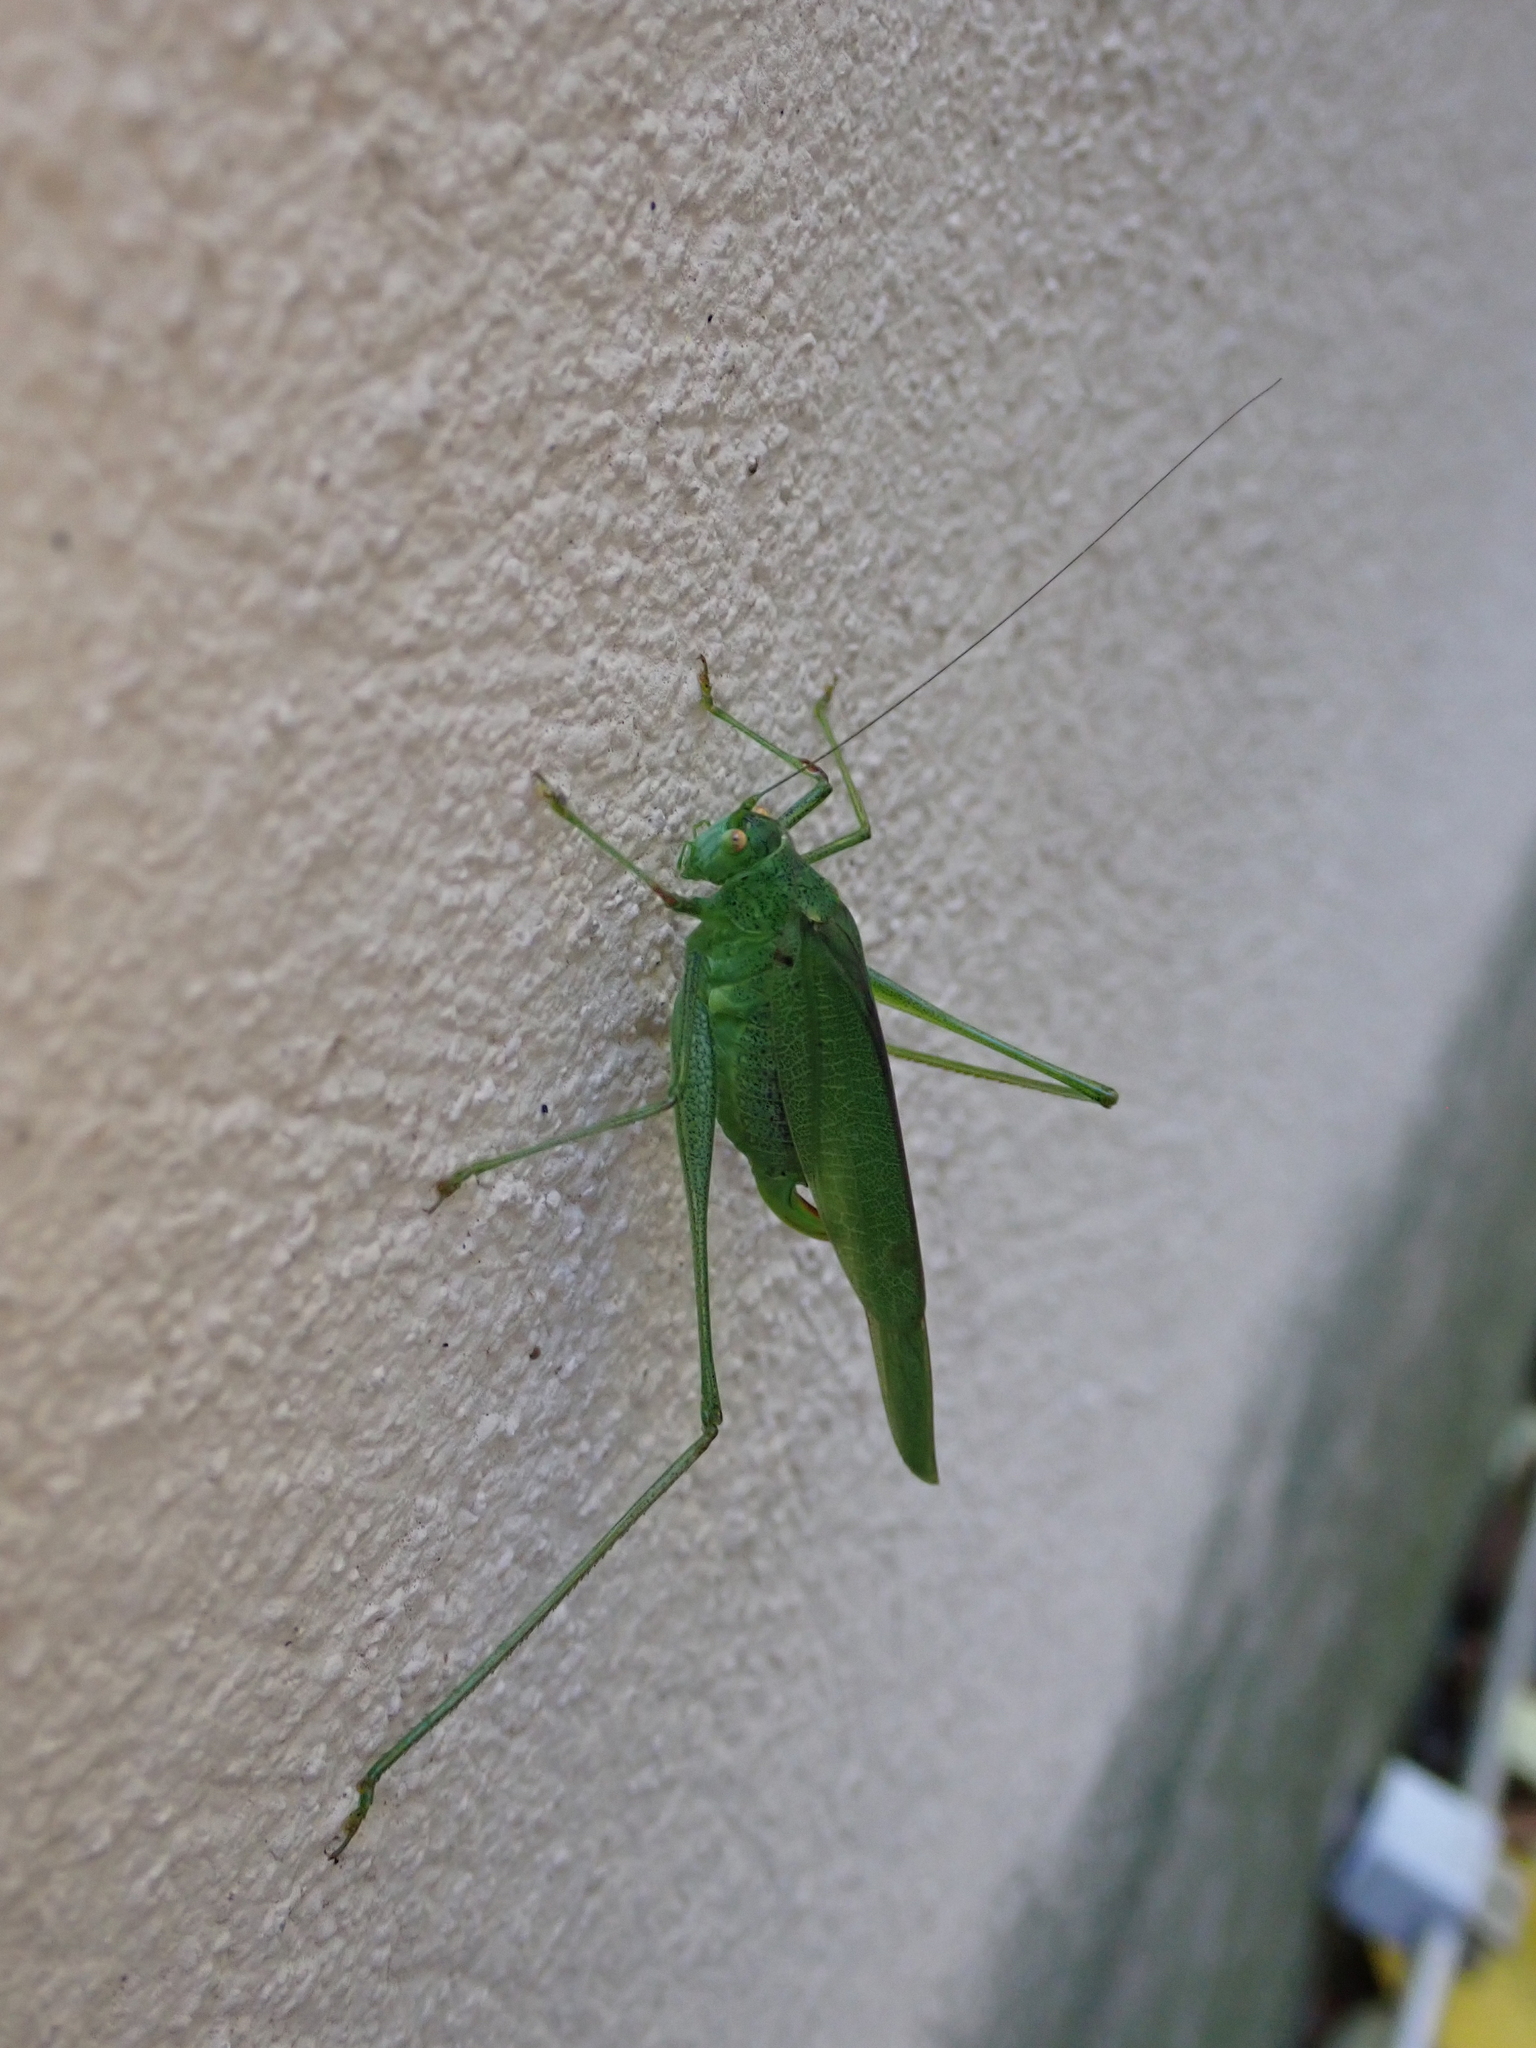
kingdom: Animalia
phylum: Arthropoda
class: Insecta
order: Orthoptera
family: Tettigoniidae
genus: Phaneroptera
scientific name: Phaneroptera nana
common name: Southern sickle bush-cricket
